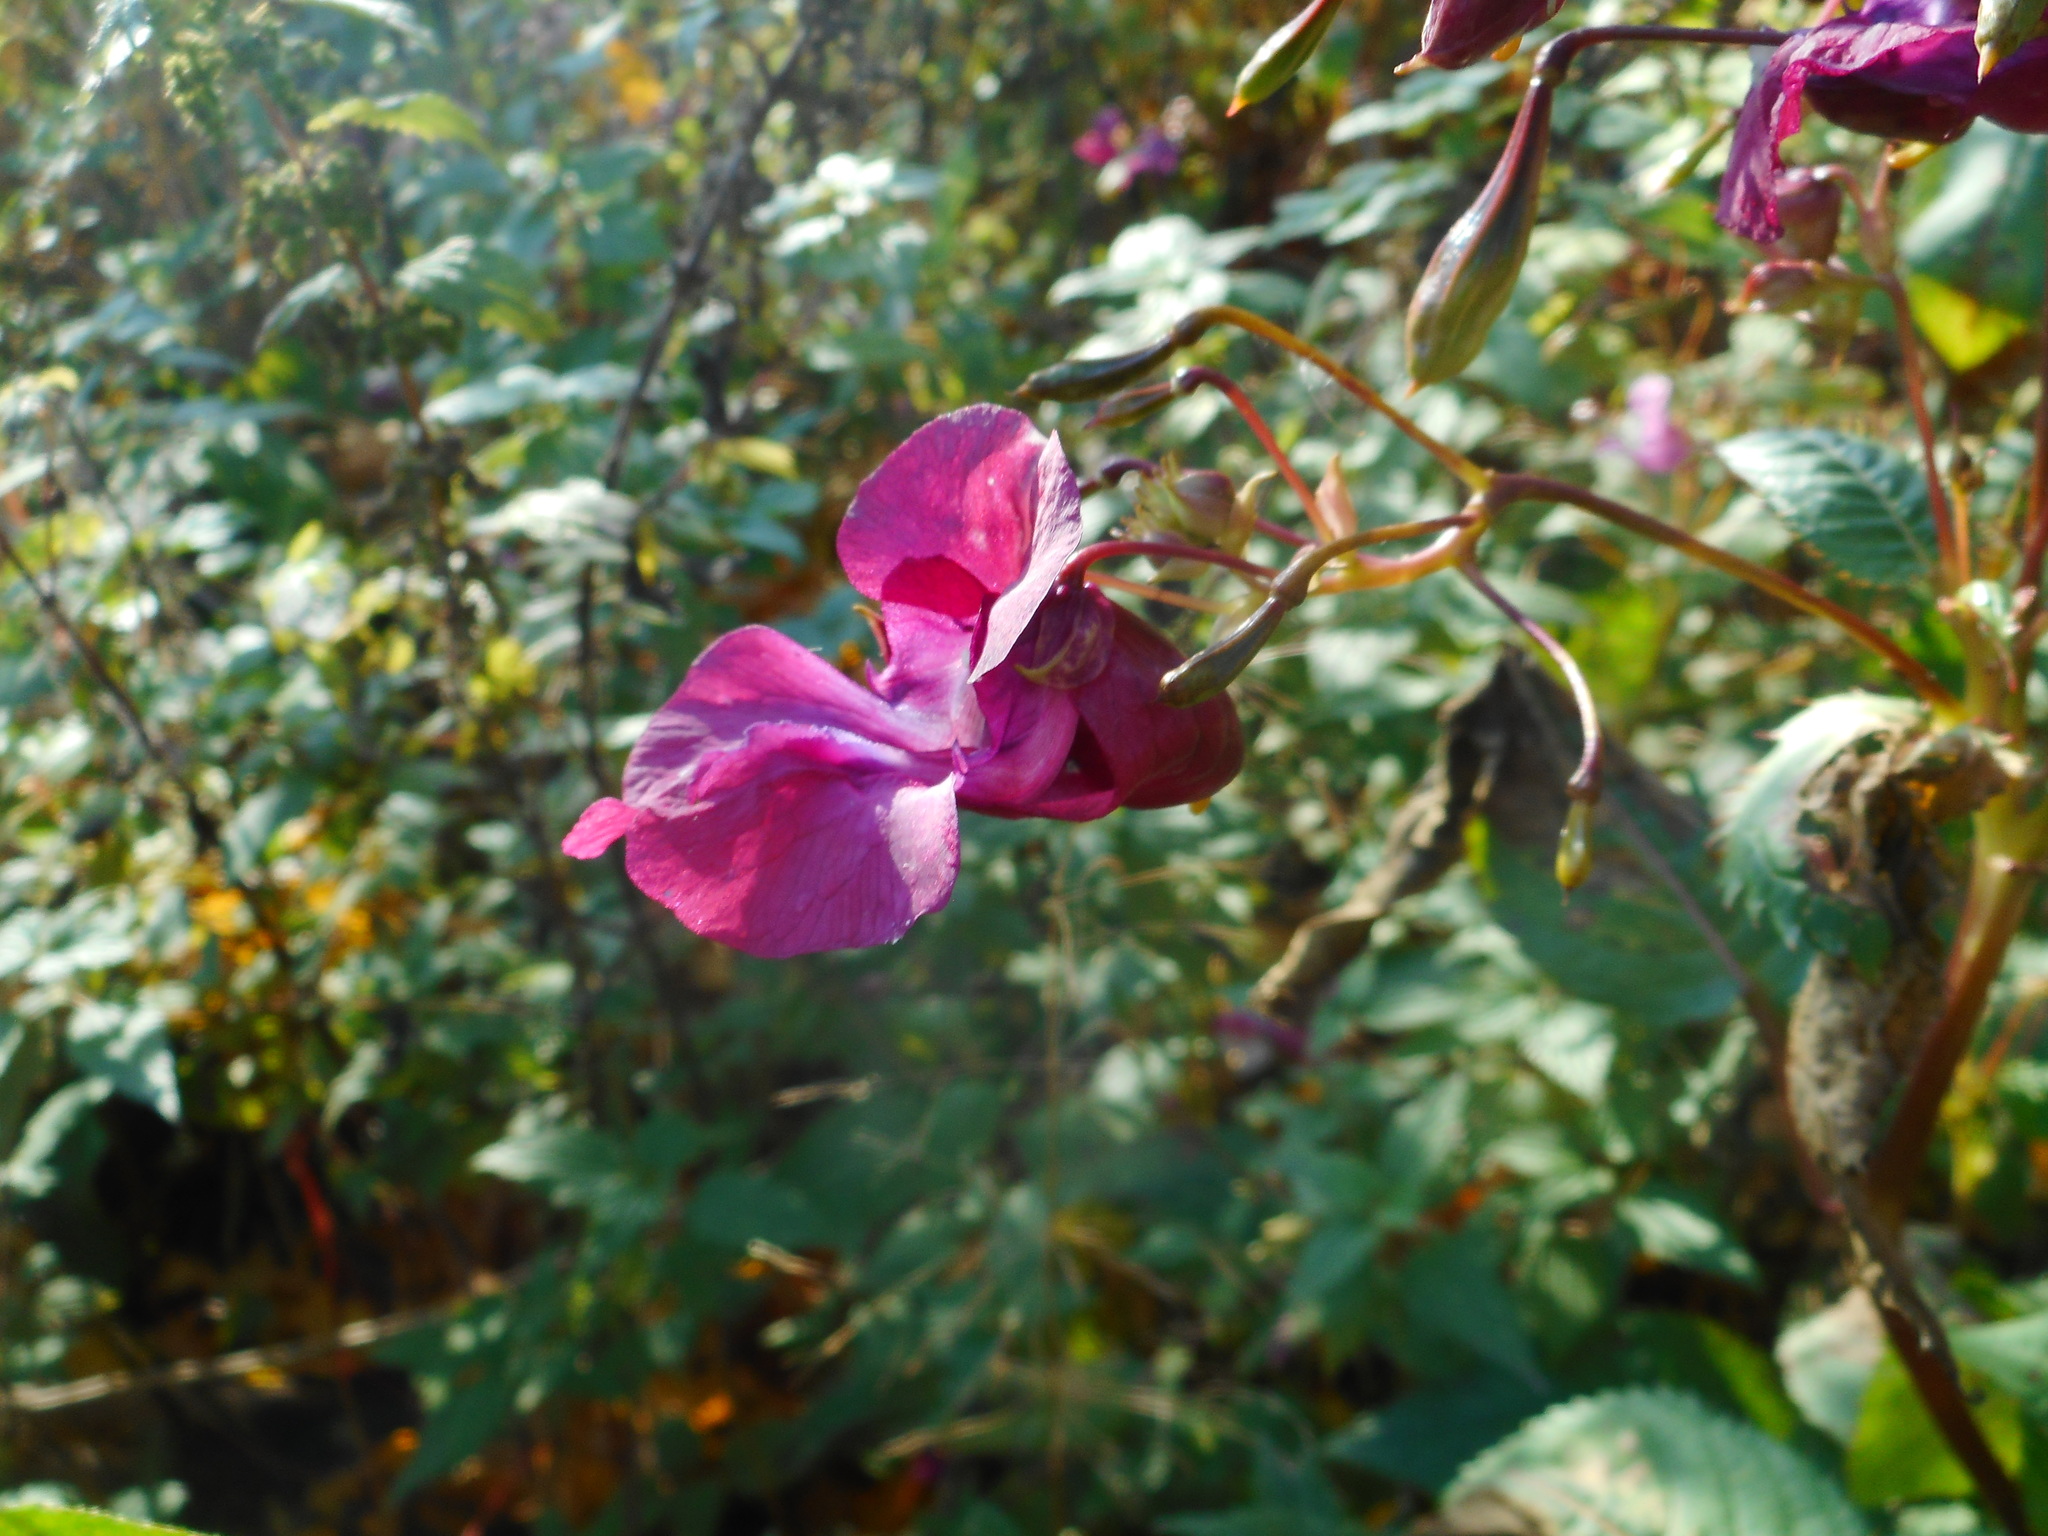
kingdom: Plantae
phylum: Tracheophyta
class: Magnoliopsida
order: Ericales
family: Balsaminaceae
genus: Impatiens
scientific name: Impatiens glandulifera
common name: Himalayan balsam
